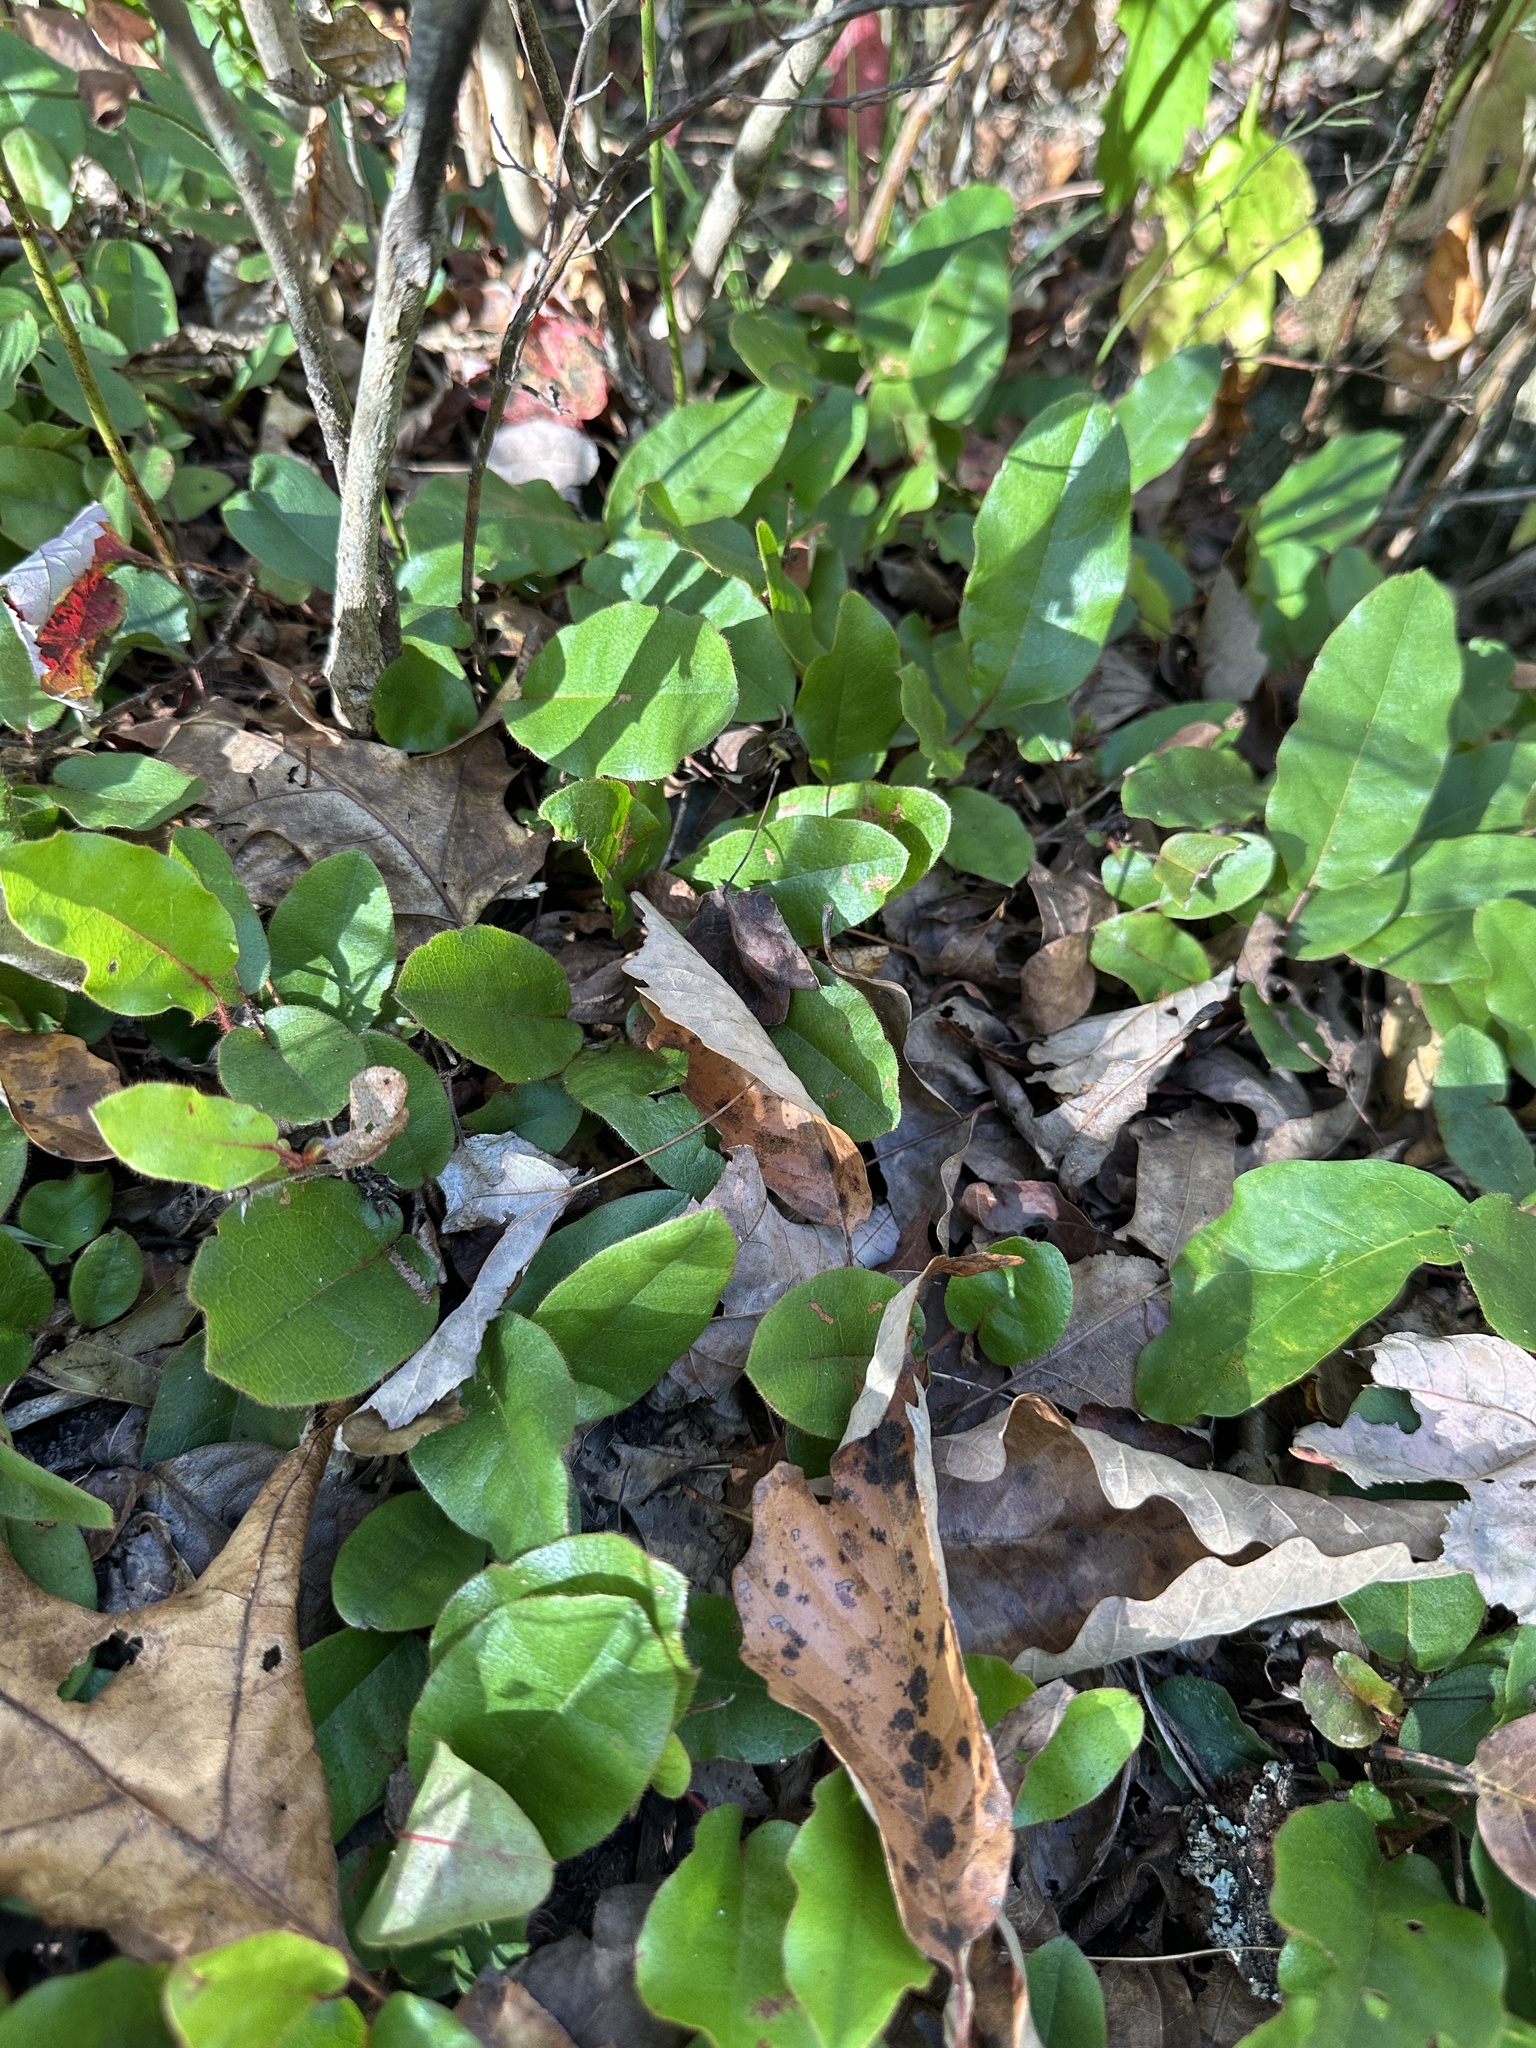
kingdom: Plantae
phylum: Tracheophyta
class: Magnoliopsida
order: Ericales
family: Ericaceae
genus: Epigaea
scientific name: Epigaea repens
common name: Gravelroot
